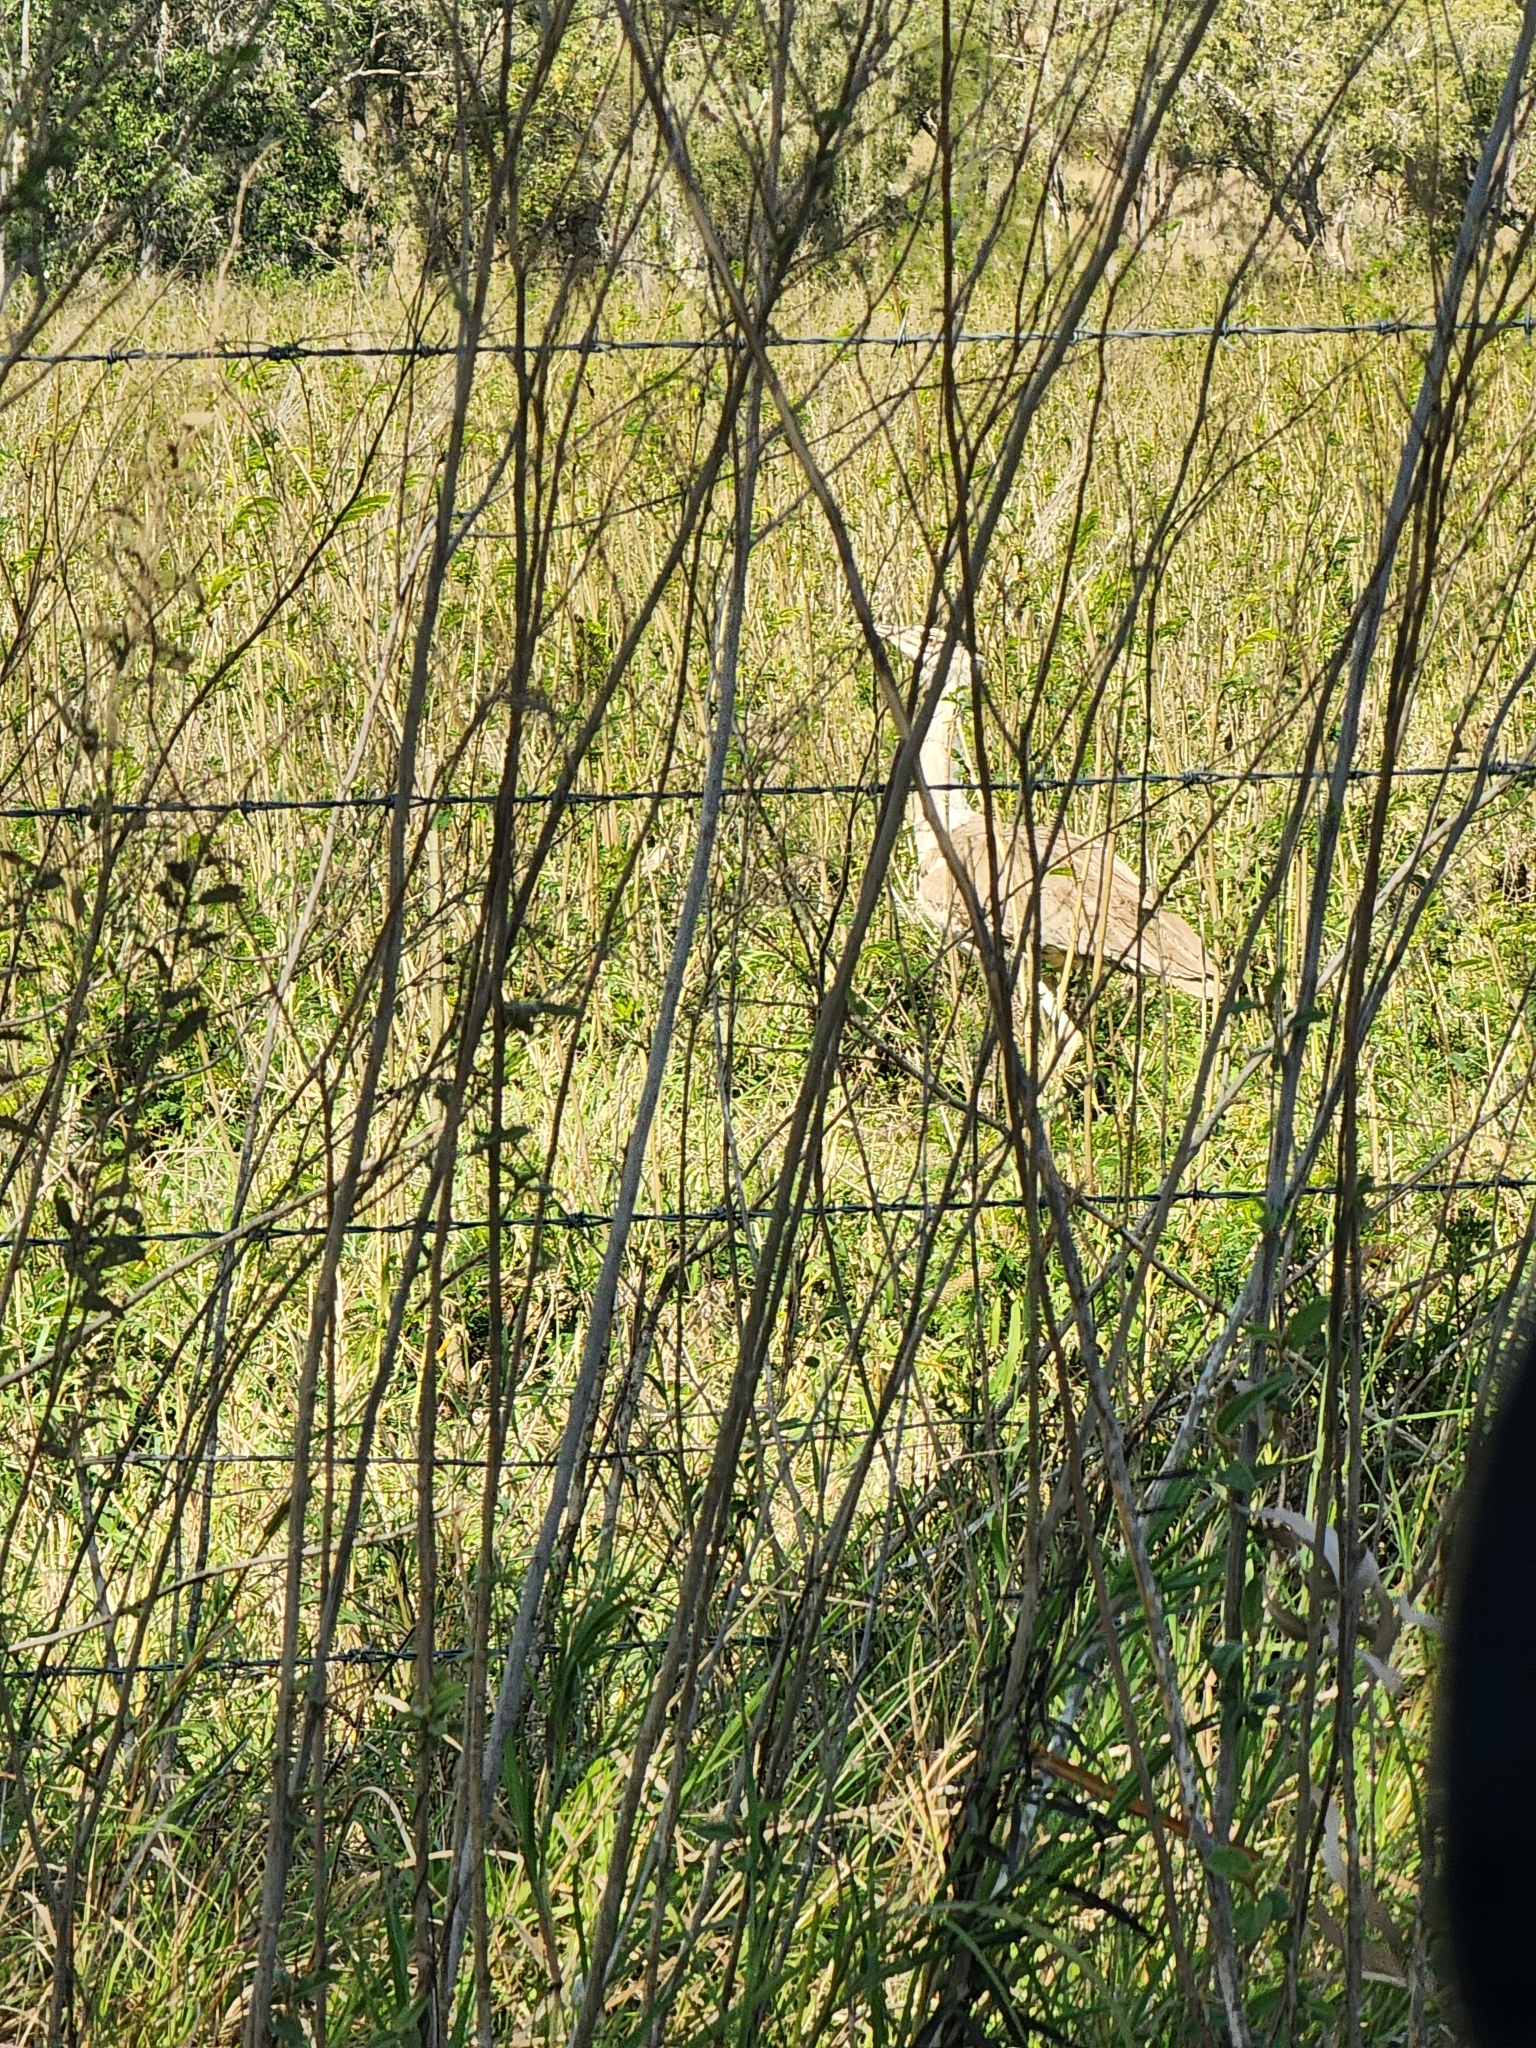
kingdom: Animalia
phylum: Chordata
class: Aves
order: Otidiformes
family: Otididae
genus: Ardeotis
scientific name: Ardeotis australis
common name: Australian bustard
